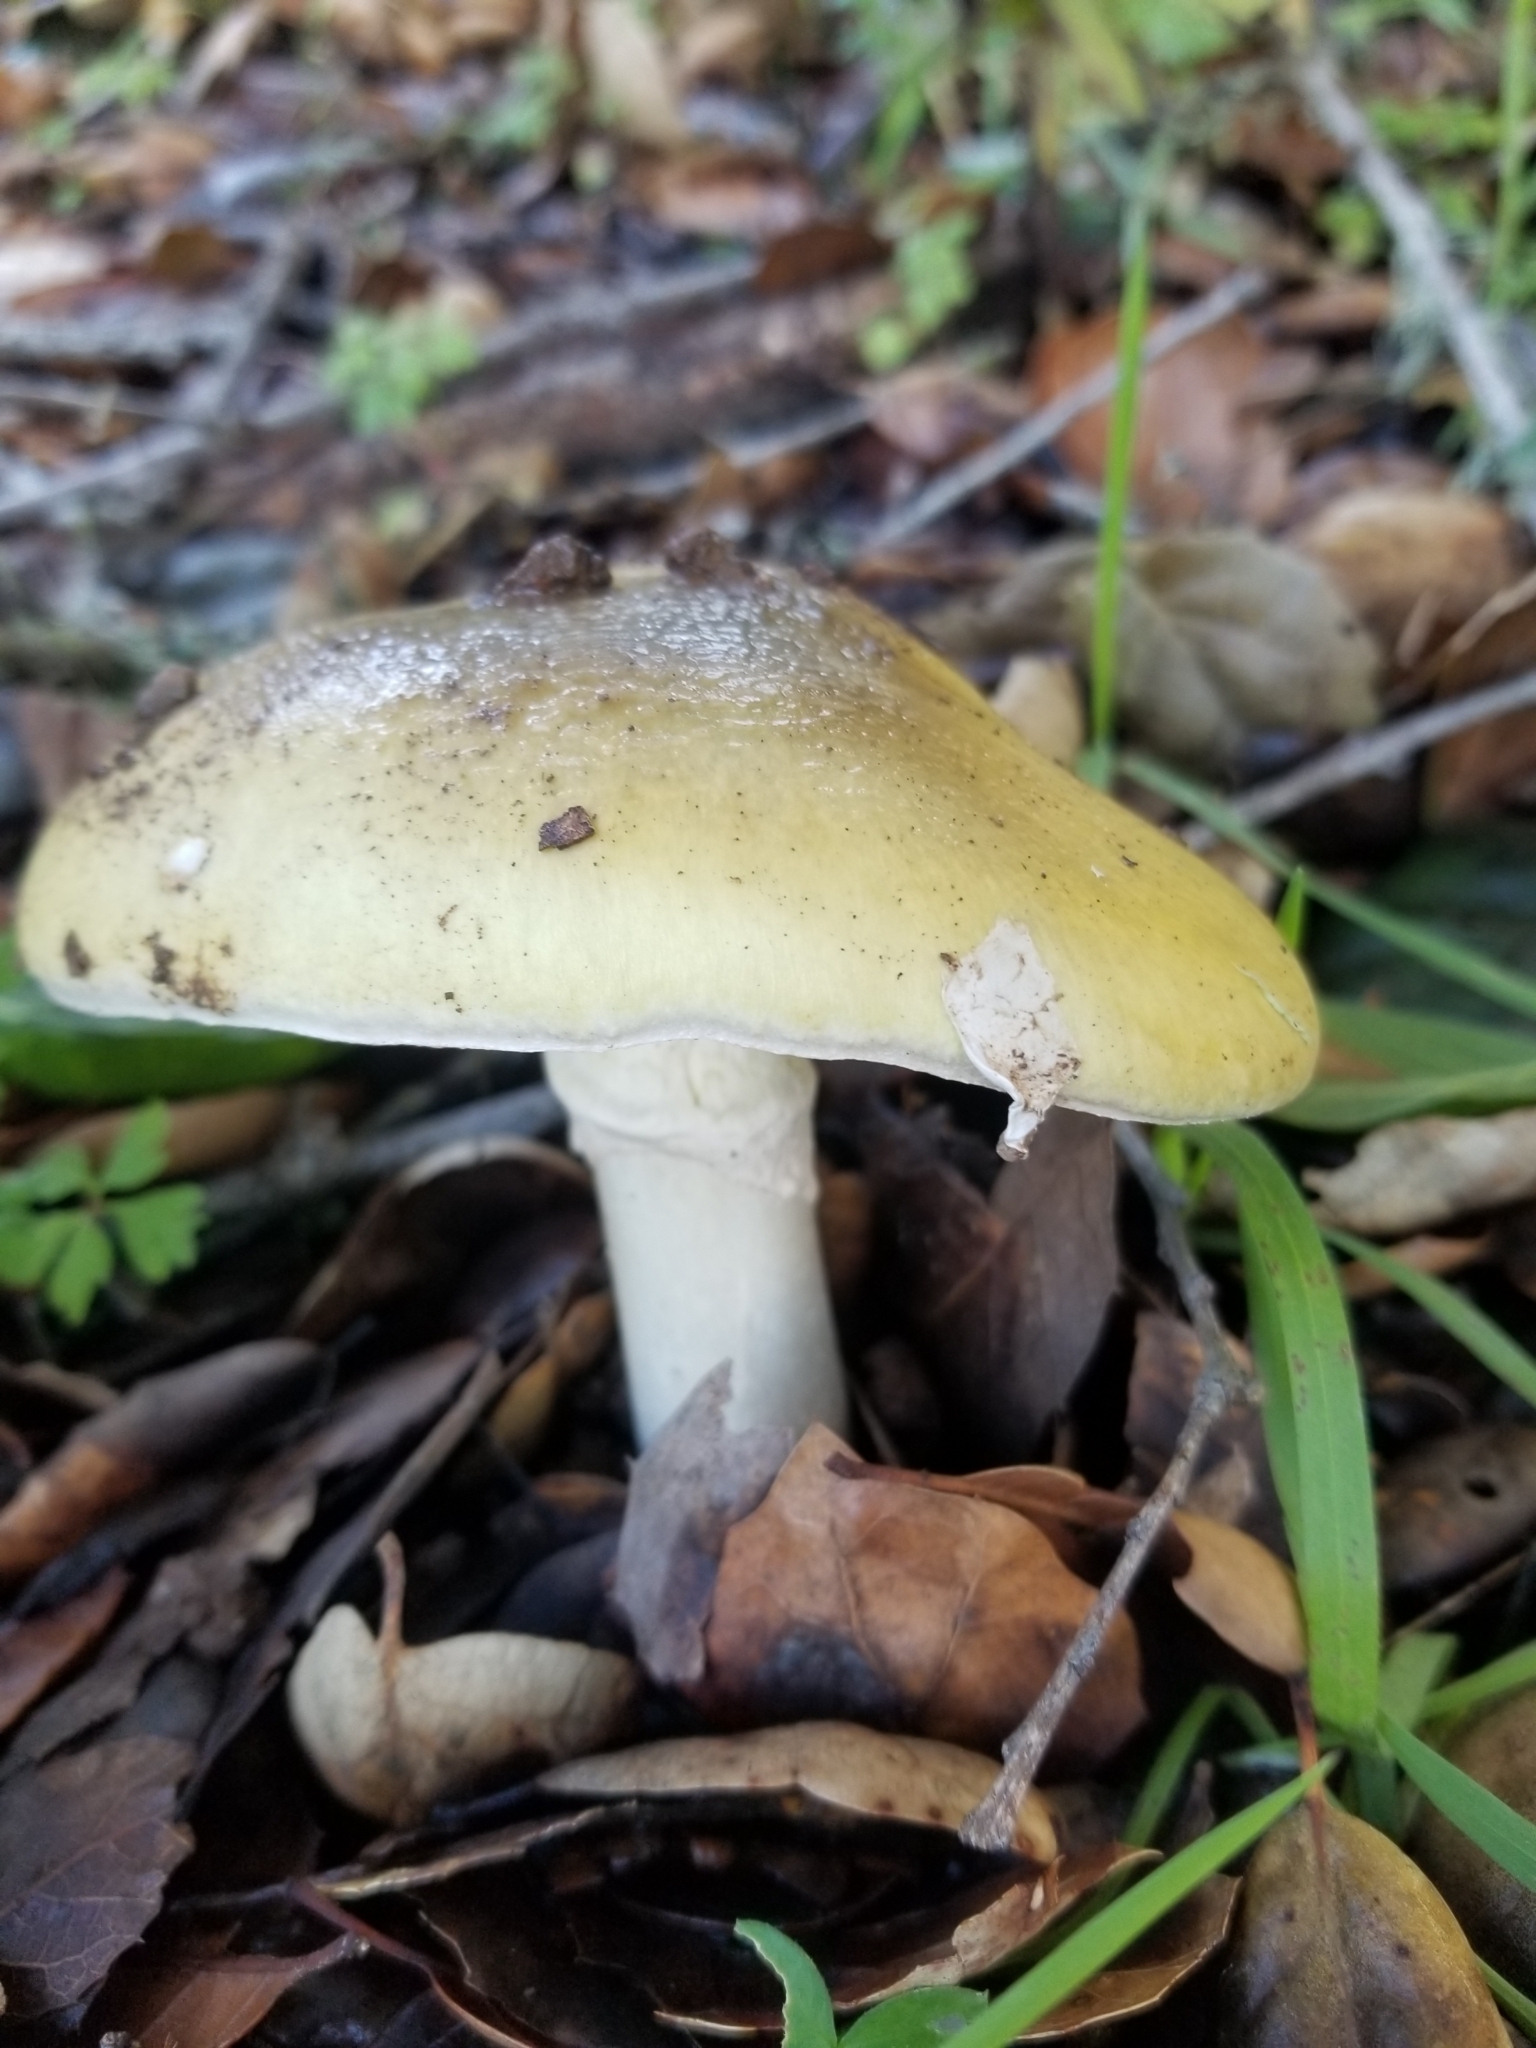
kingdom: Fungi
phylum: Basidiomycota
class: Agaricomycetes
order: Agaricales
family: Amanitaceae
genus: Amanita
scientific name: Amanita phalloides
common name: Death cap
